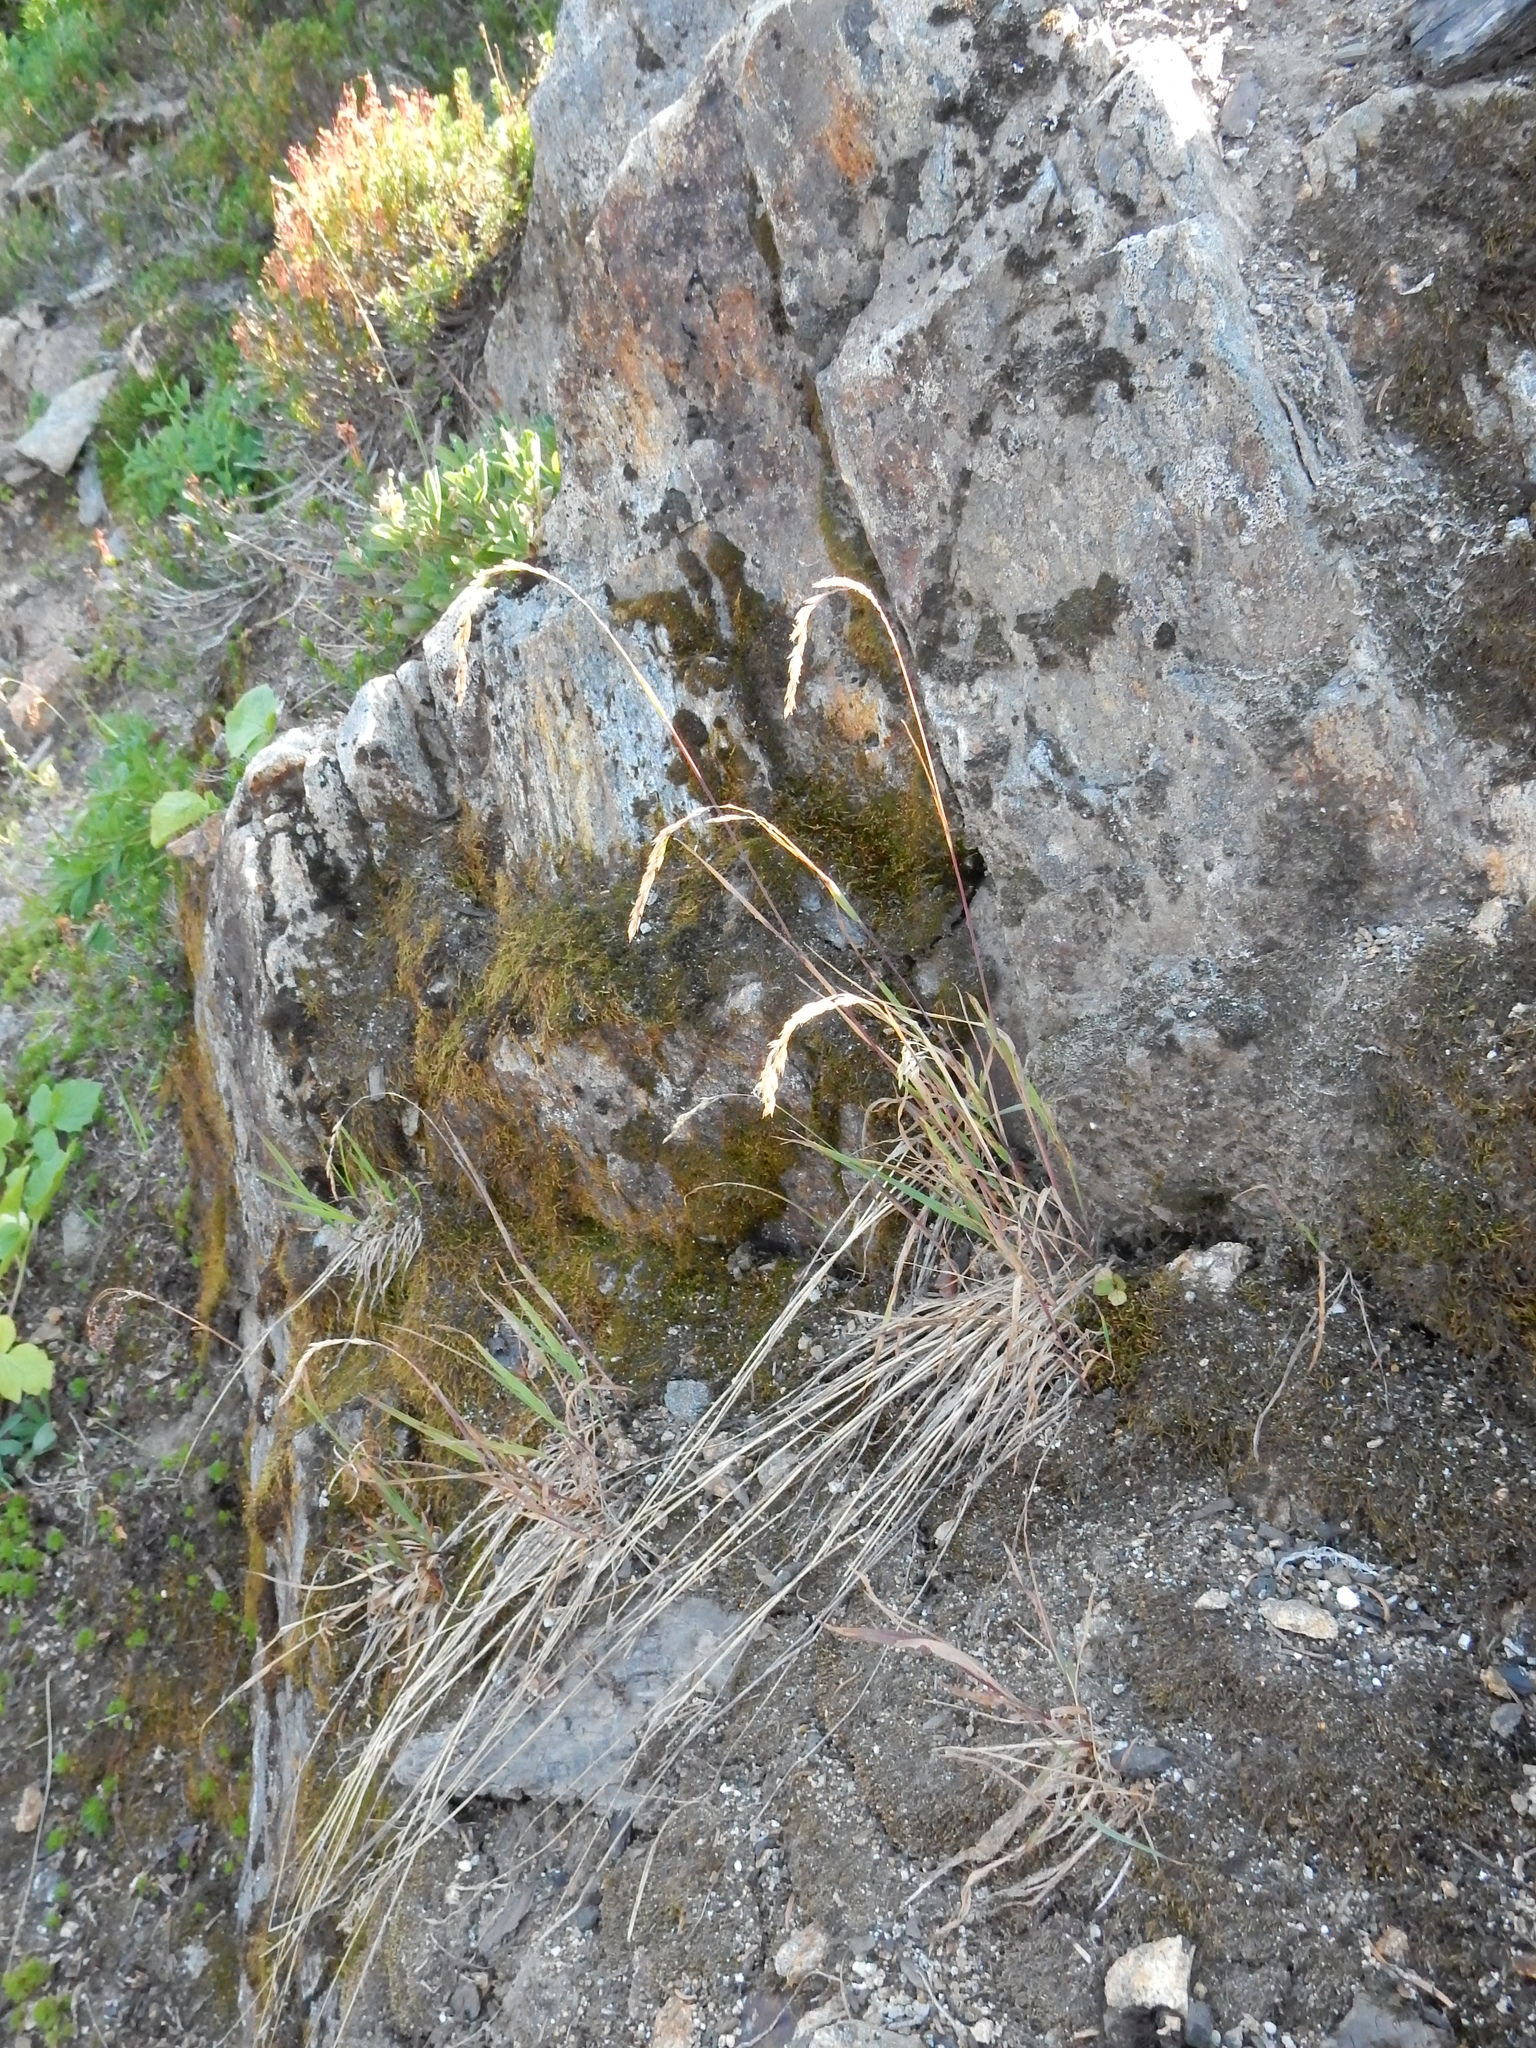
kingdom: Plantae
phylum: Tracheophyta
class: Liliopsida
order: Poales
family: Poaceae
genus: Vahlodea
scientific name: Vahlodea atropurpurea
